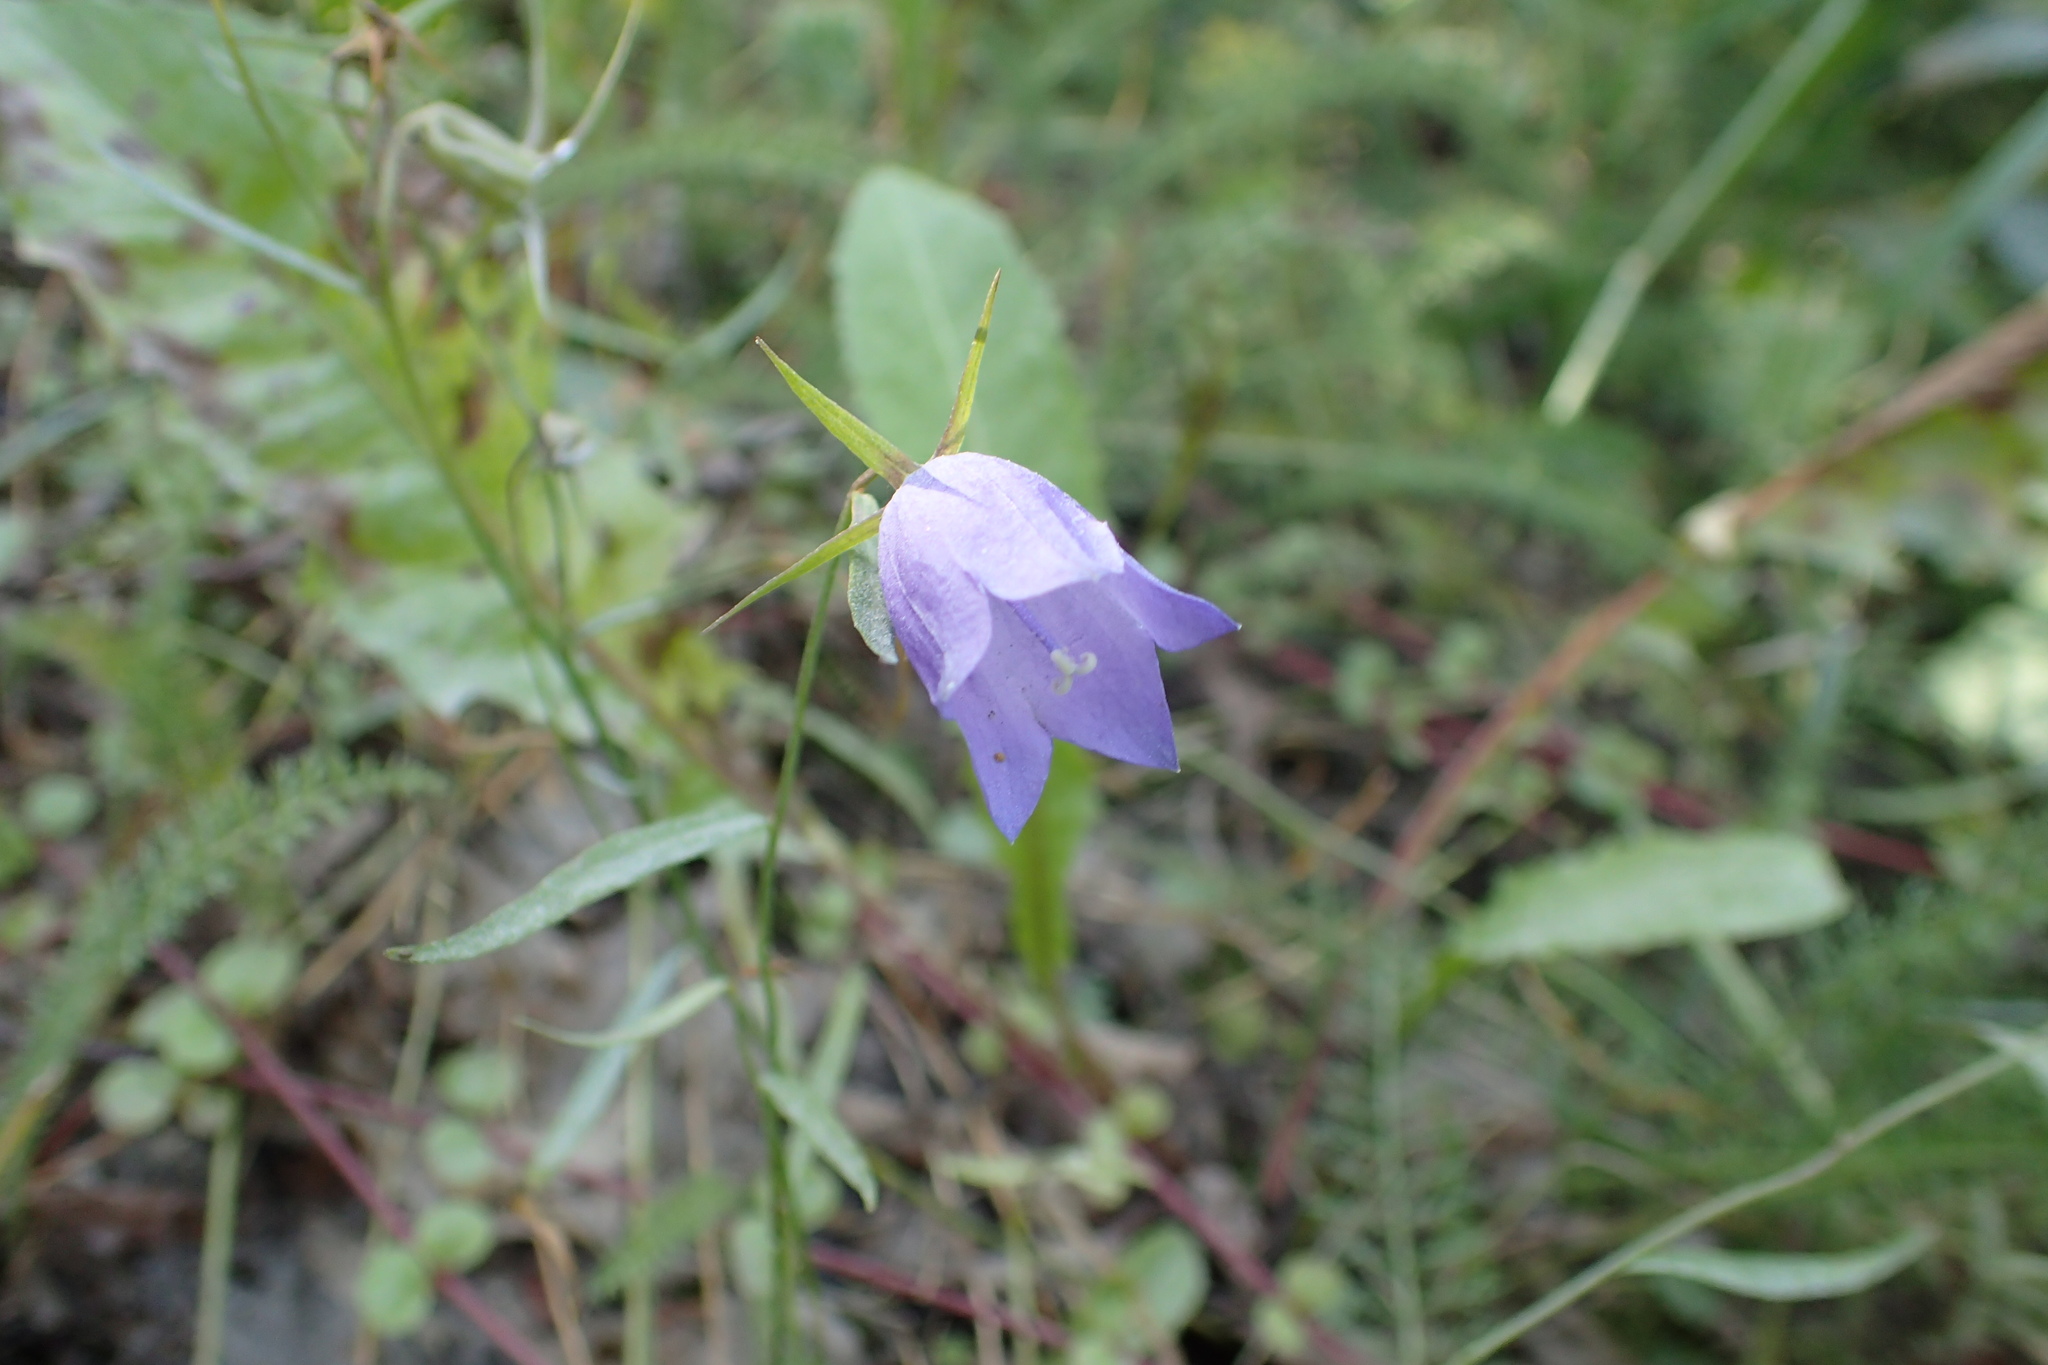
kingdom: Plantae
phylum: Tracheophyta
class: Magnoliopsida
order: Asterales
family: Campanulaceae
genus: Campanula
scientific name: Campanula alaskana
